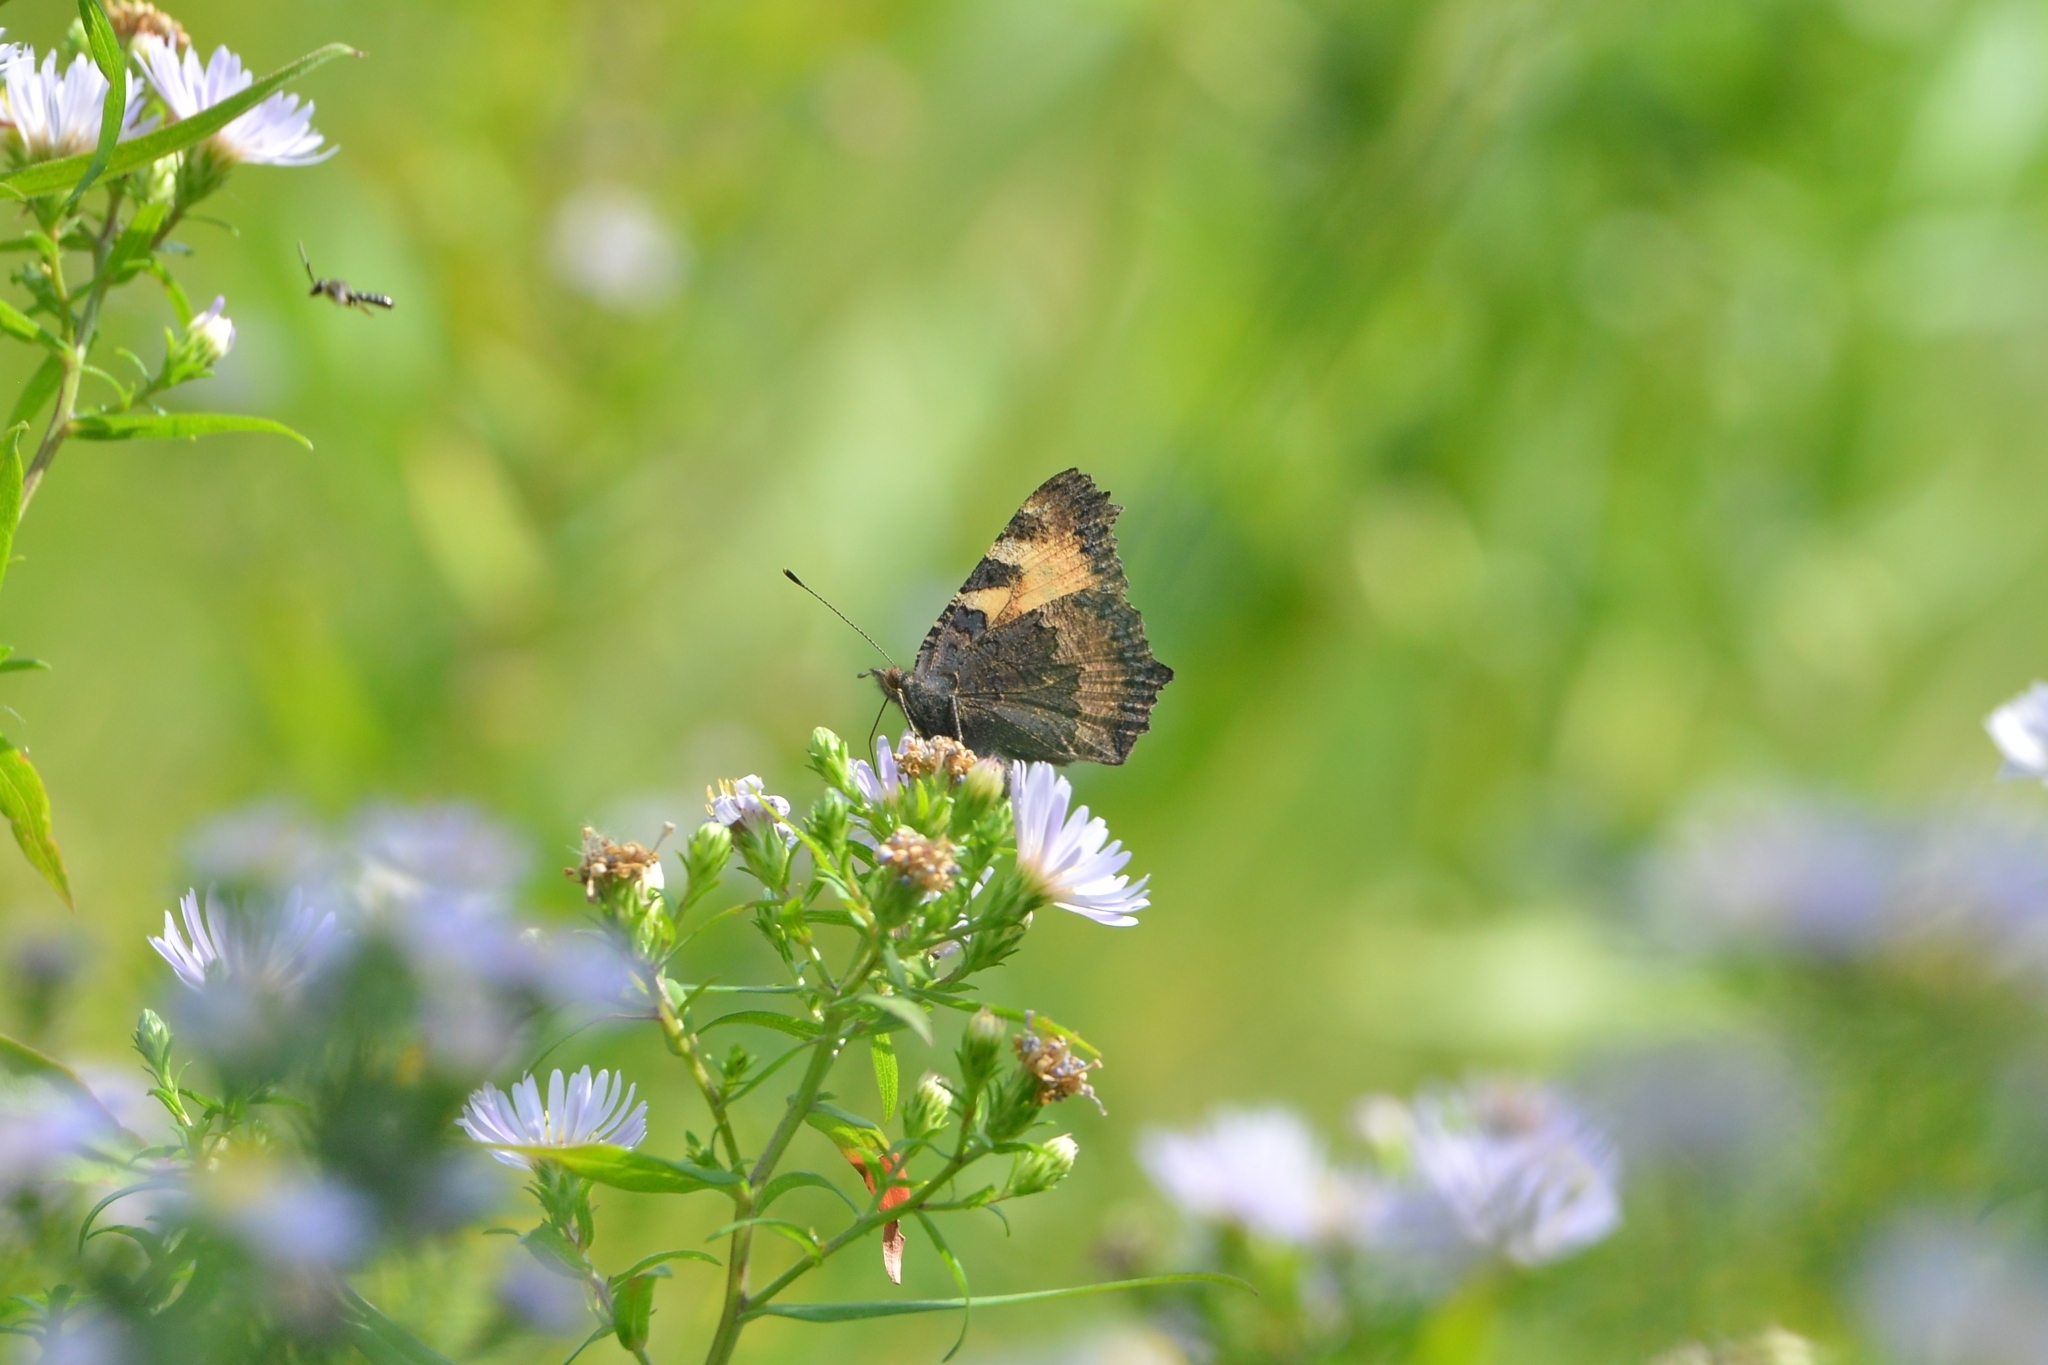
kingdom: Animalia
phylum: Arthropoda
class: Insecta
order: Lepidoptera
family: Nymphalidae
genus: Aglais
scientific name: Aglais urticae
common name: Small tortoiseshell
